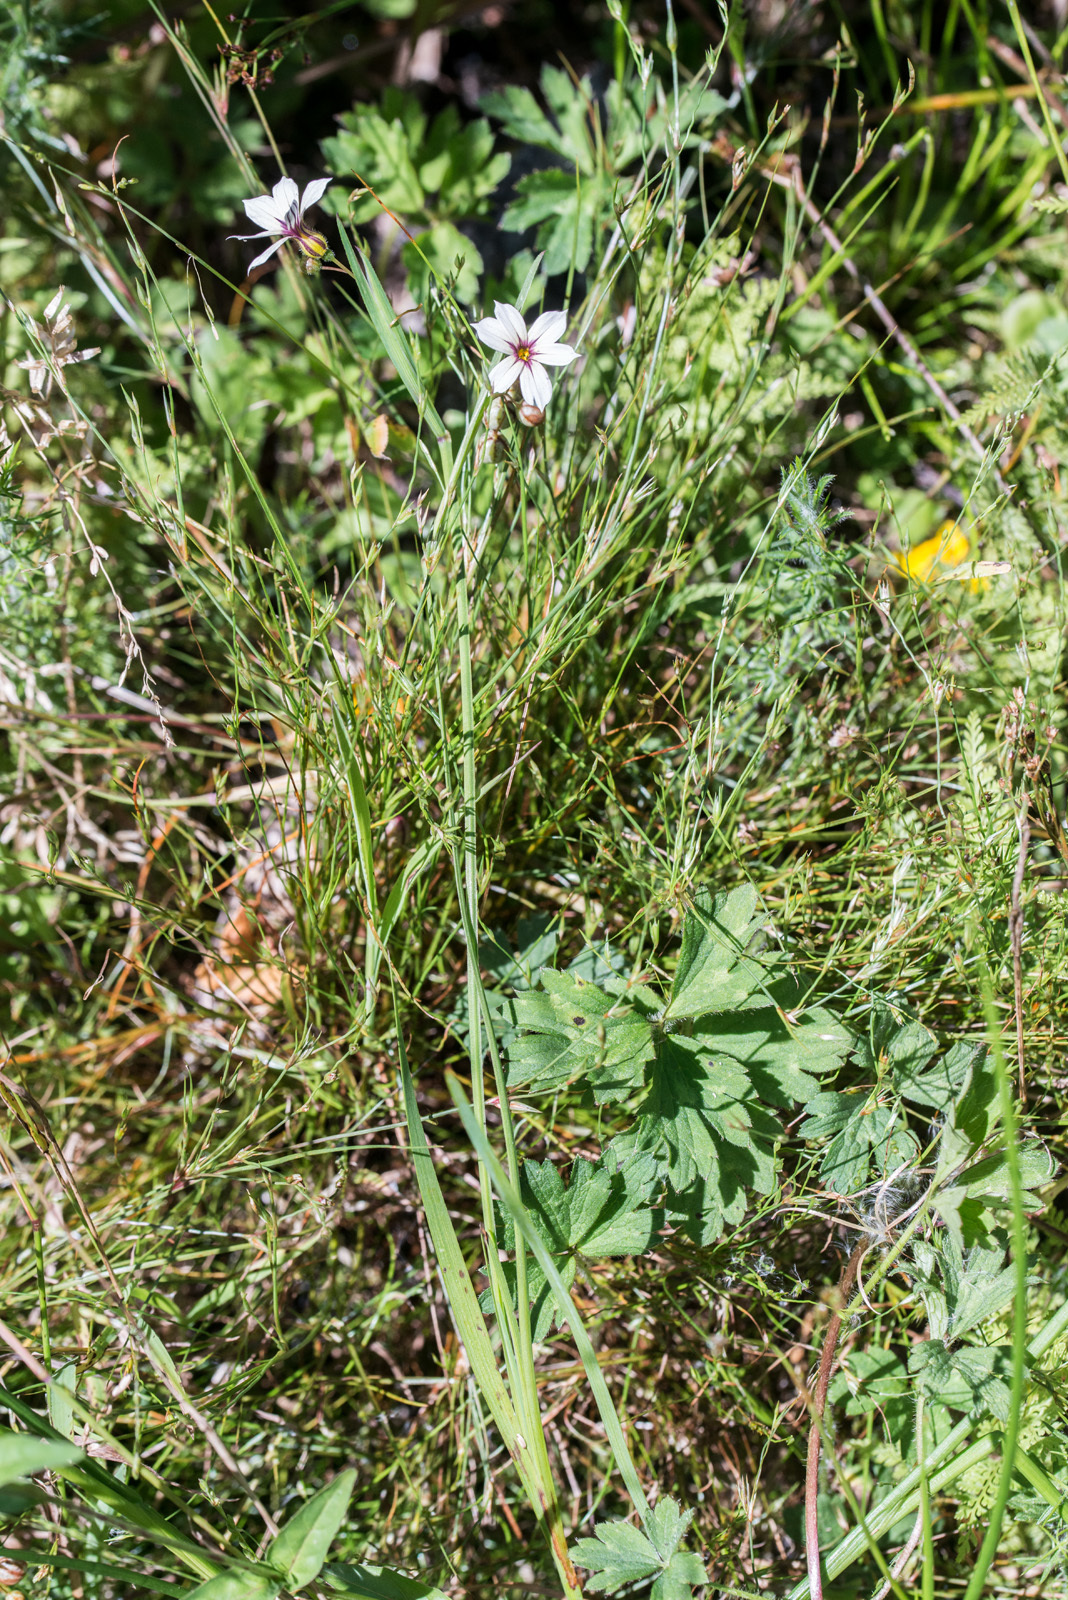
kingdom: Plantae
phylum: Tracheophyta
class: Liliopsida
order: Asparagales
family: Iridaceae
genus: Sisyrinchium
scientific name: Sisyrinchium micranthum
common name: Bermuda pigroot
